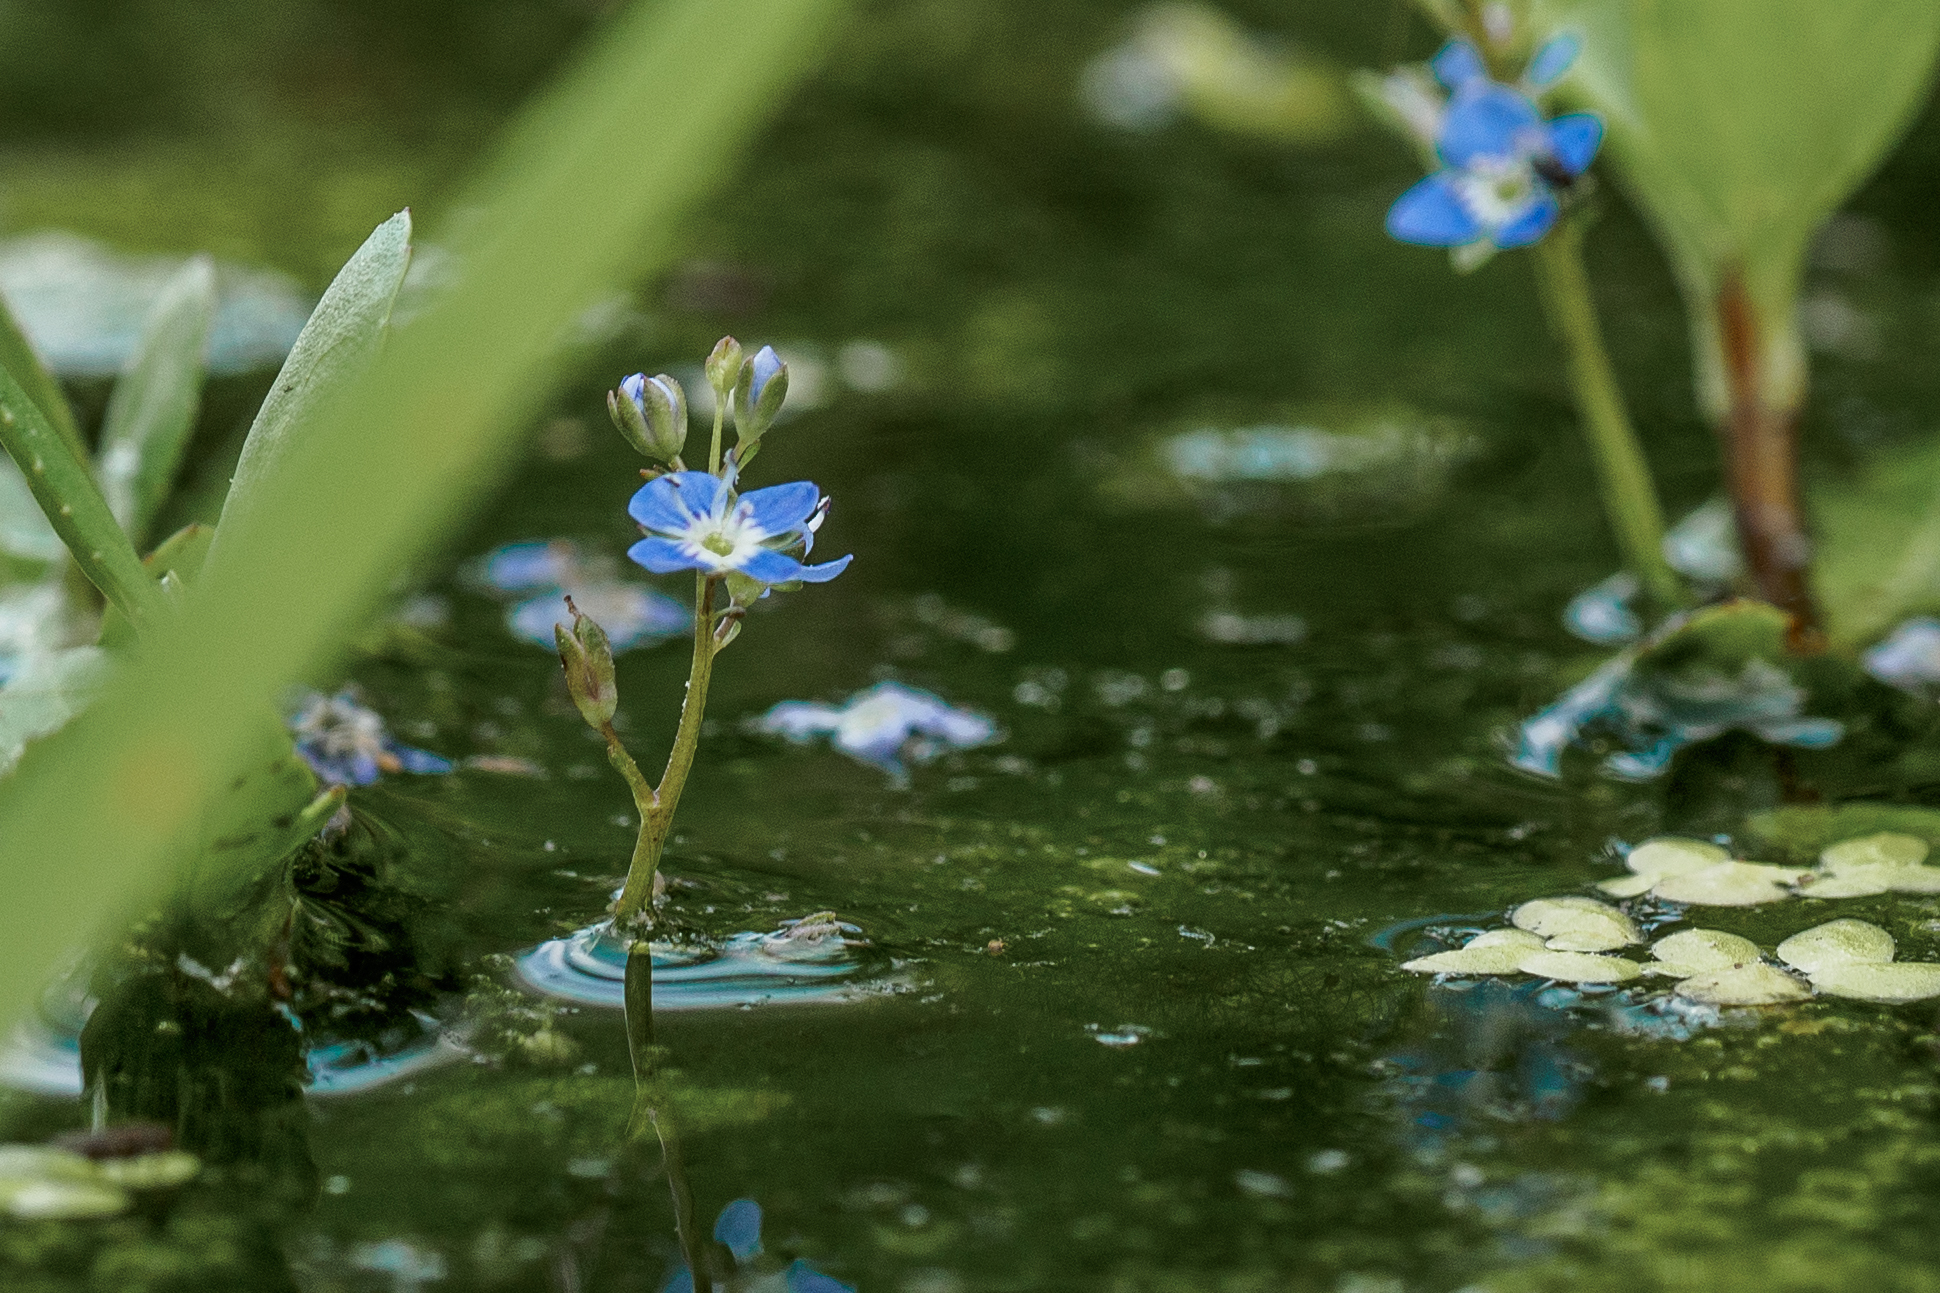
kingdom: Plantae
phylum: Tracheophyta
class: Magnoliopsida
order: Lamiales
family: Plantaginaceae
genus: Veronica
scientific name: Veronica beccabunga
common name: Brooklime
